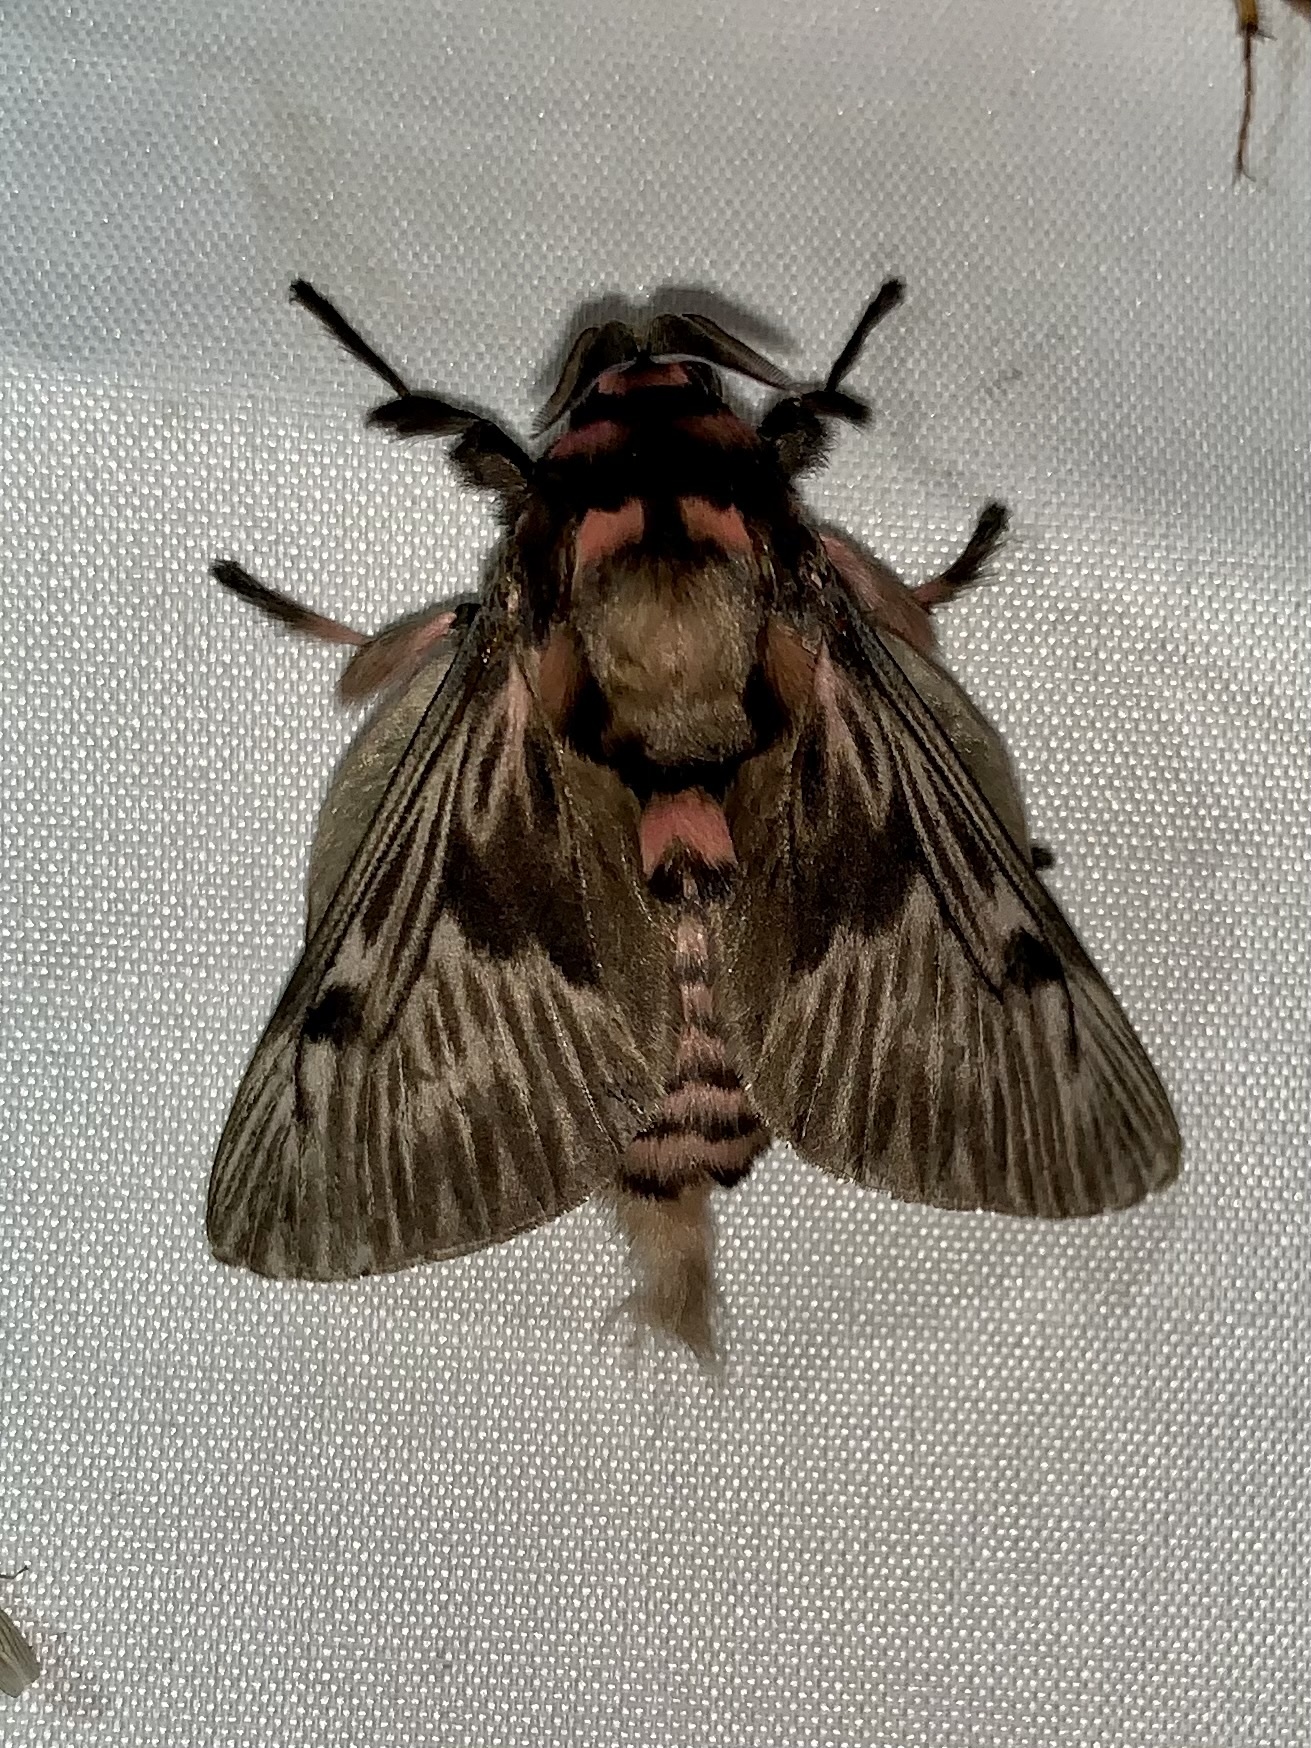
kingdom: Animalia
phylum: Arthropoda
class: Insecta
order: Lepidoptera
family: Megalopygidae
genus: Megalopyge
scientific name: Megalopyge lanata
